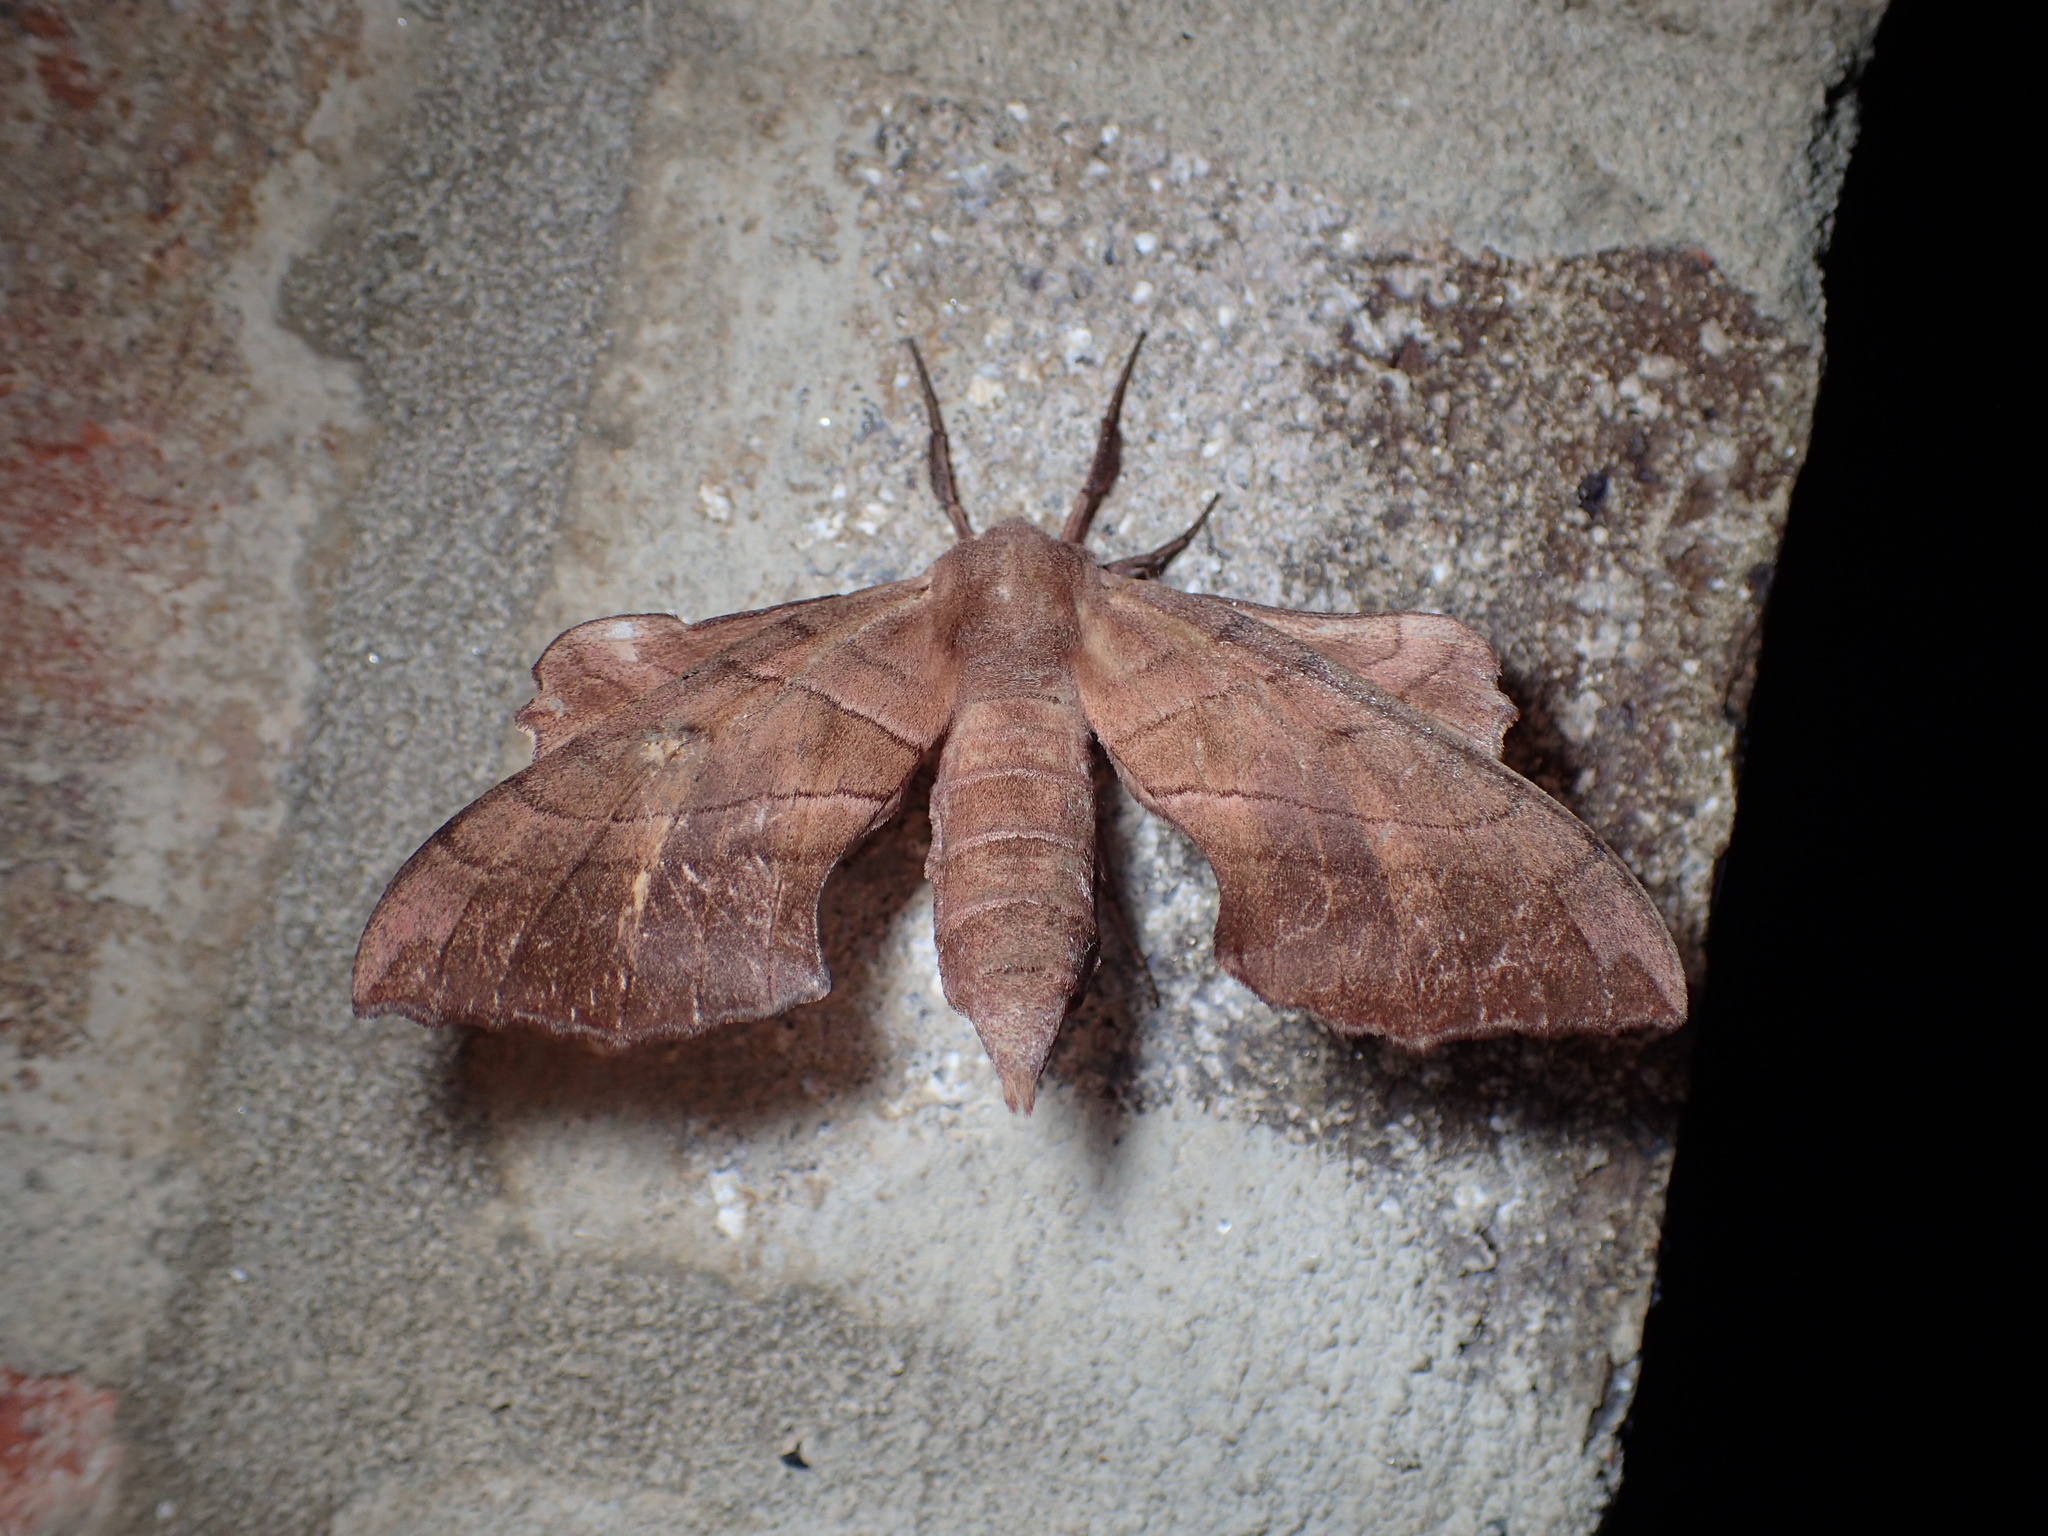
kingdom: Animalia
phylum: Arthropoda
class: Insecta
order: Lepidoptera
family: Sphingidae
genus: Amorpha
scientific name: Amorpha juglandis
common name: Walnut sphinx
